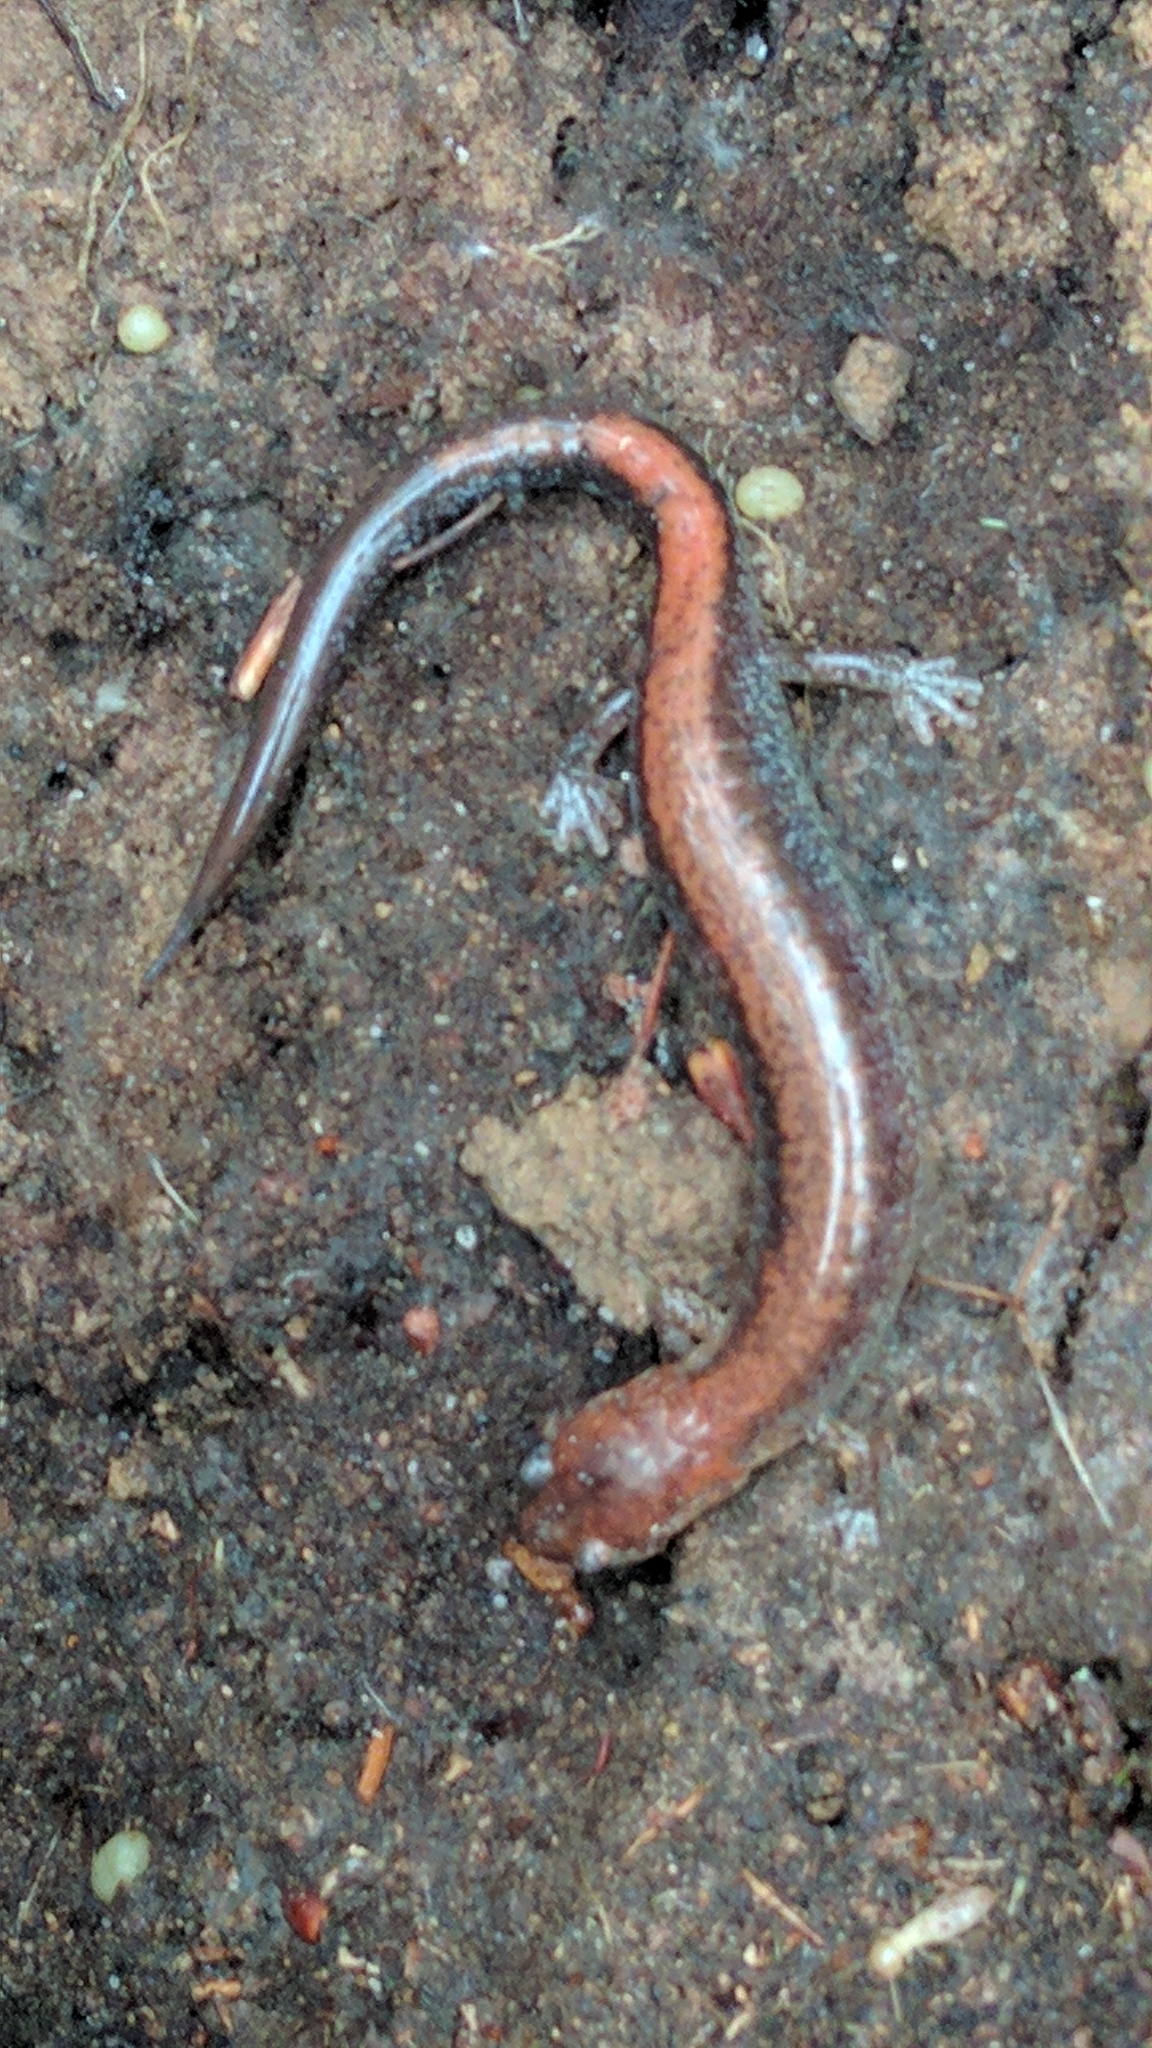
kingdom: Animalia
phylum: Chordata
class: Amphibia
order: Caudata
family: Plethodontidae
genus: Plethodon
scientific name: Plethodon cinereus
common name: Redback salamander
